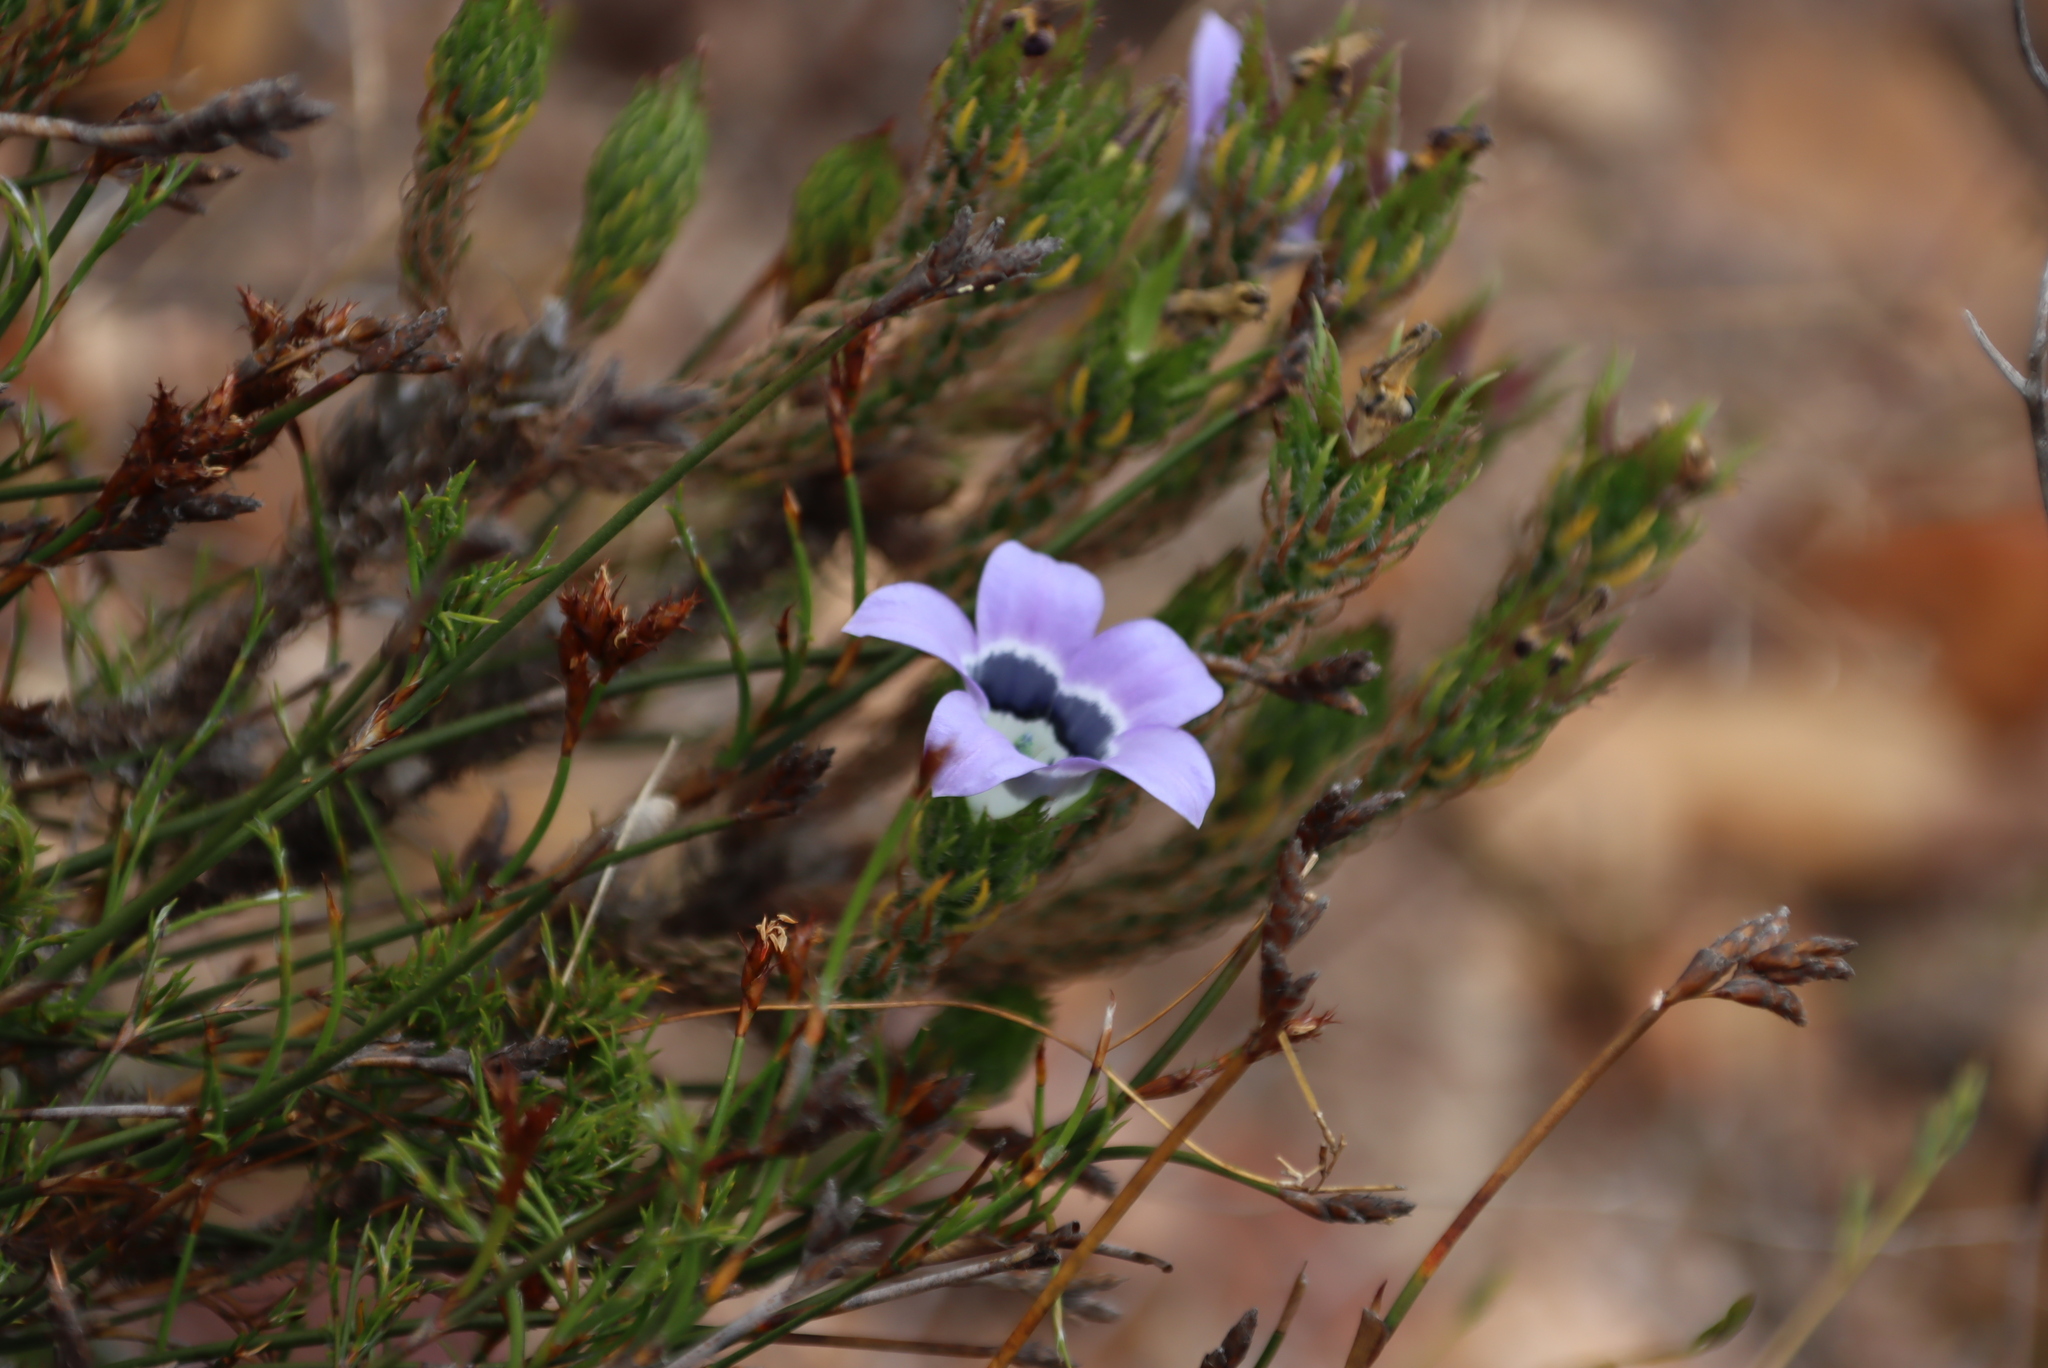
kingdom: Plantae
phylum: Tracheophyta
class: Magnoliopsida
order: Asterales
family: Campanulaceae
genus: Roella
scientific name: Roella ciliata
